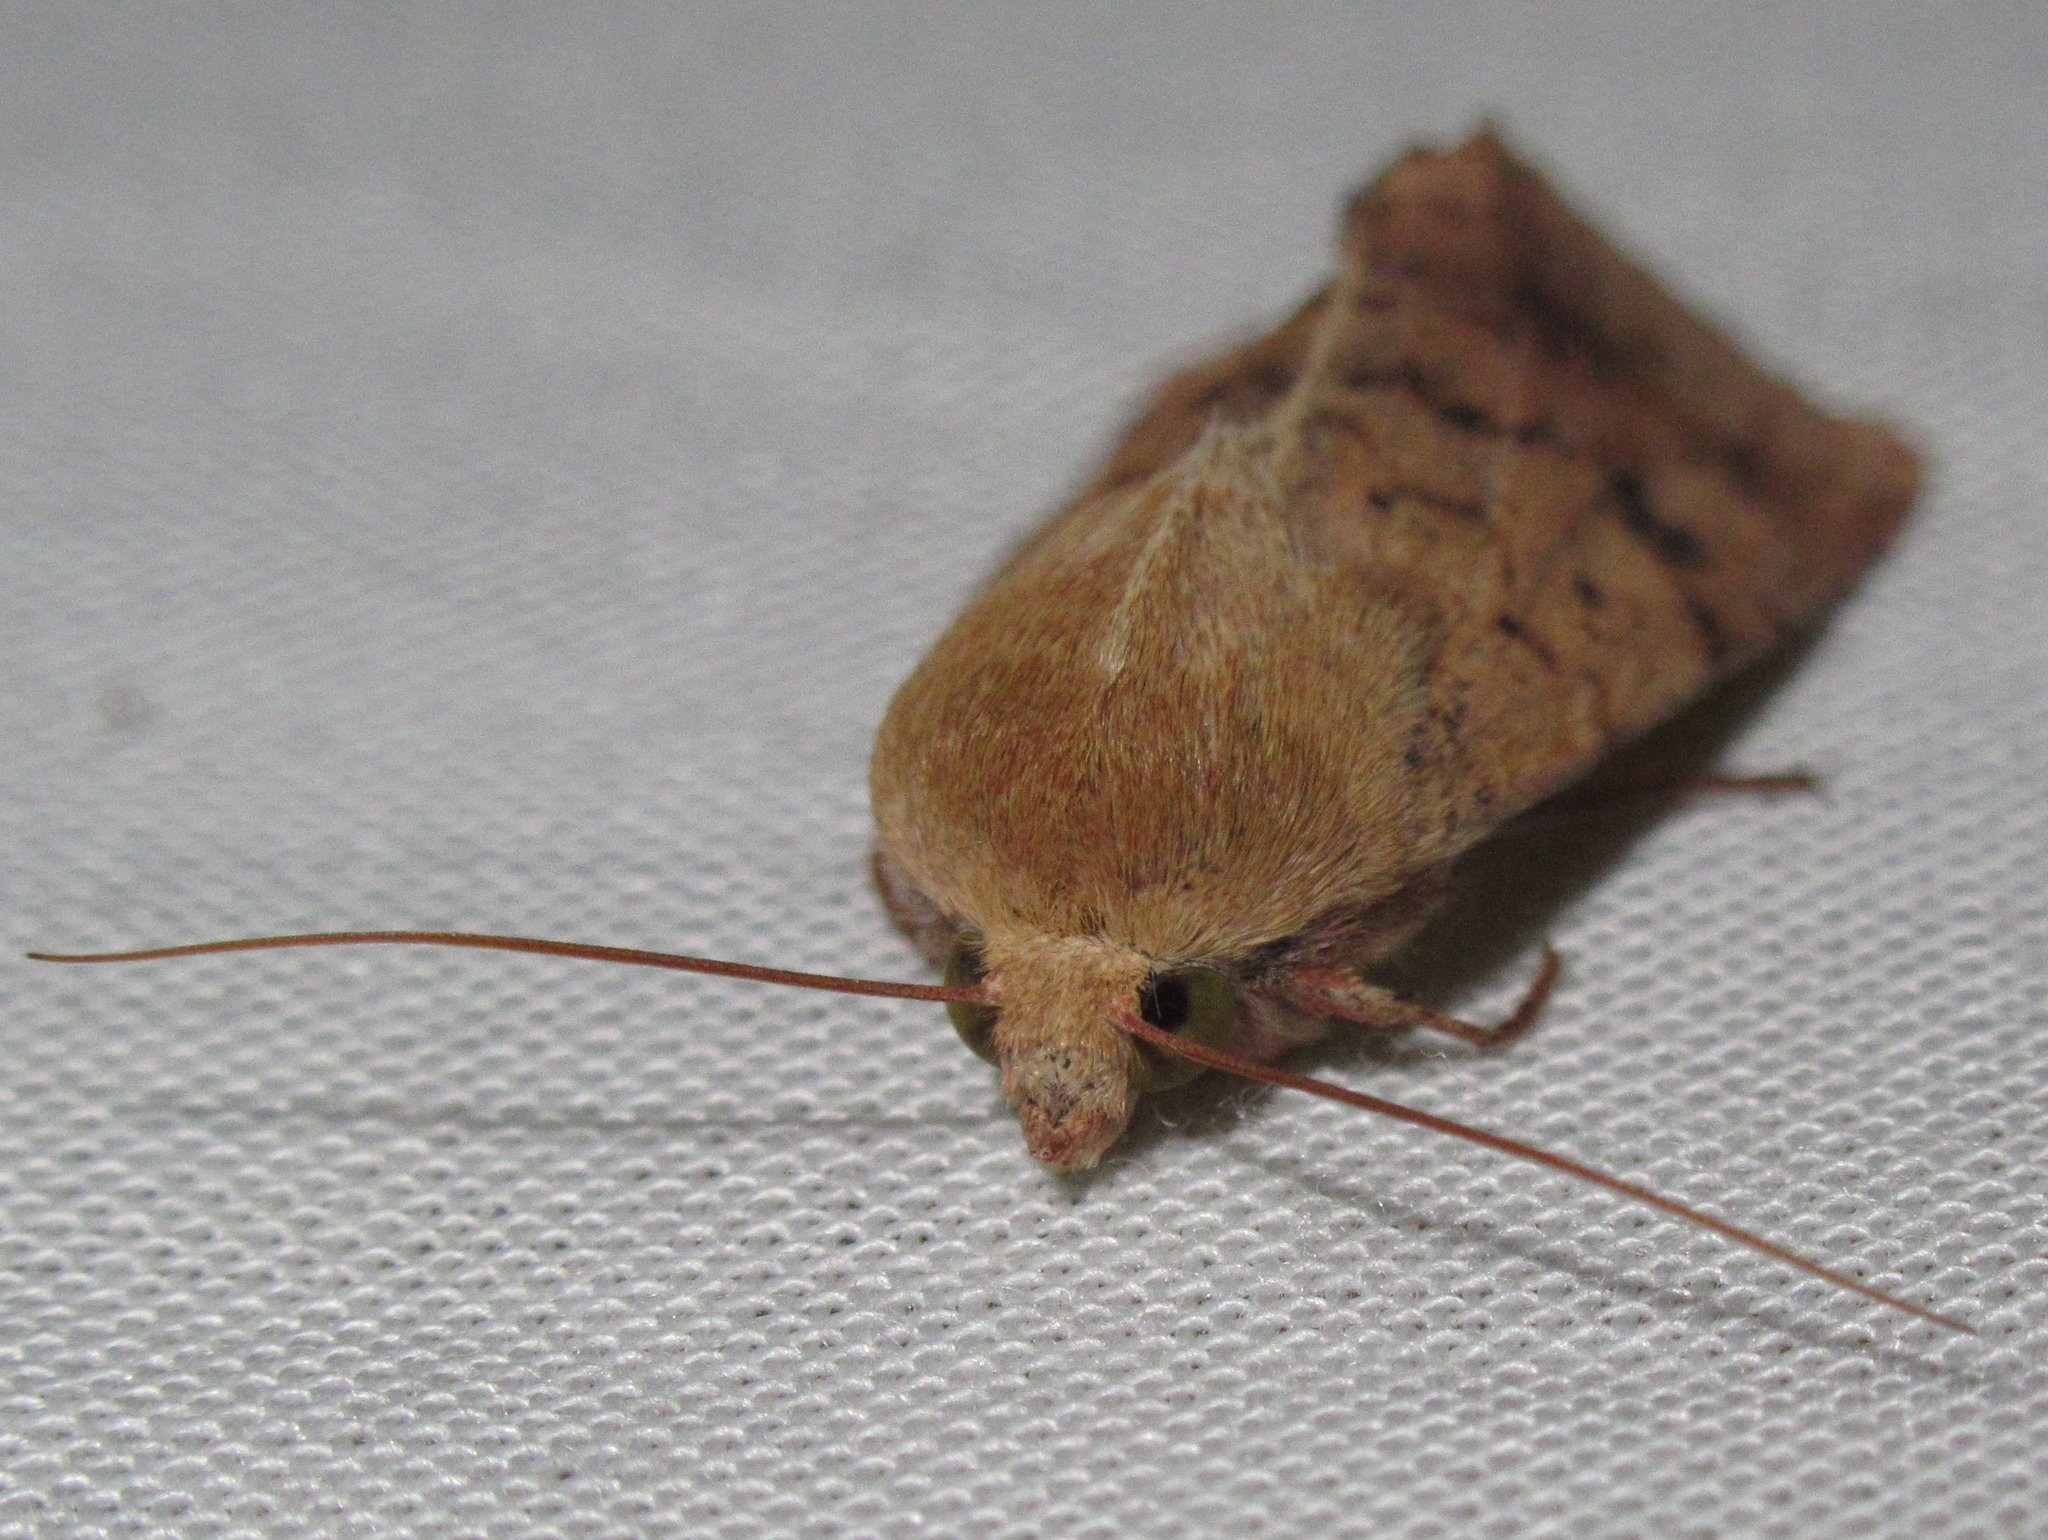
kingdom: Animalia
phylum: Arthropoda
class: Insecta
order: Lepidoptera
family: Noctuidae
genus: Helicoverpa
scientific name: Helicoverpa armigera
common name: Cotton bollworm
